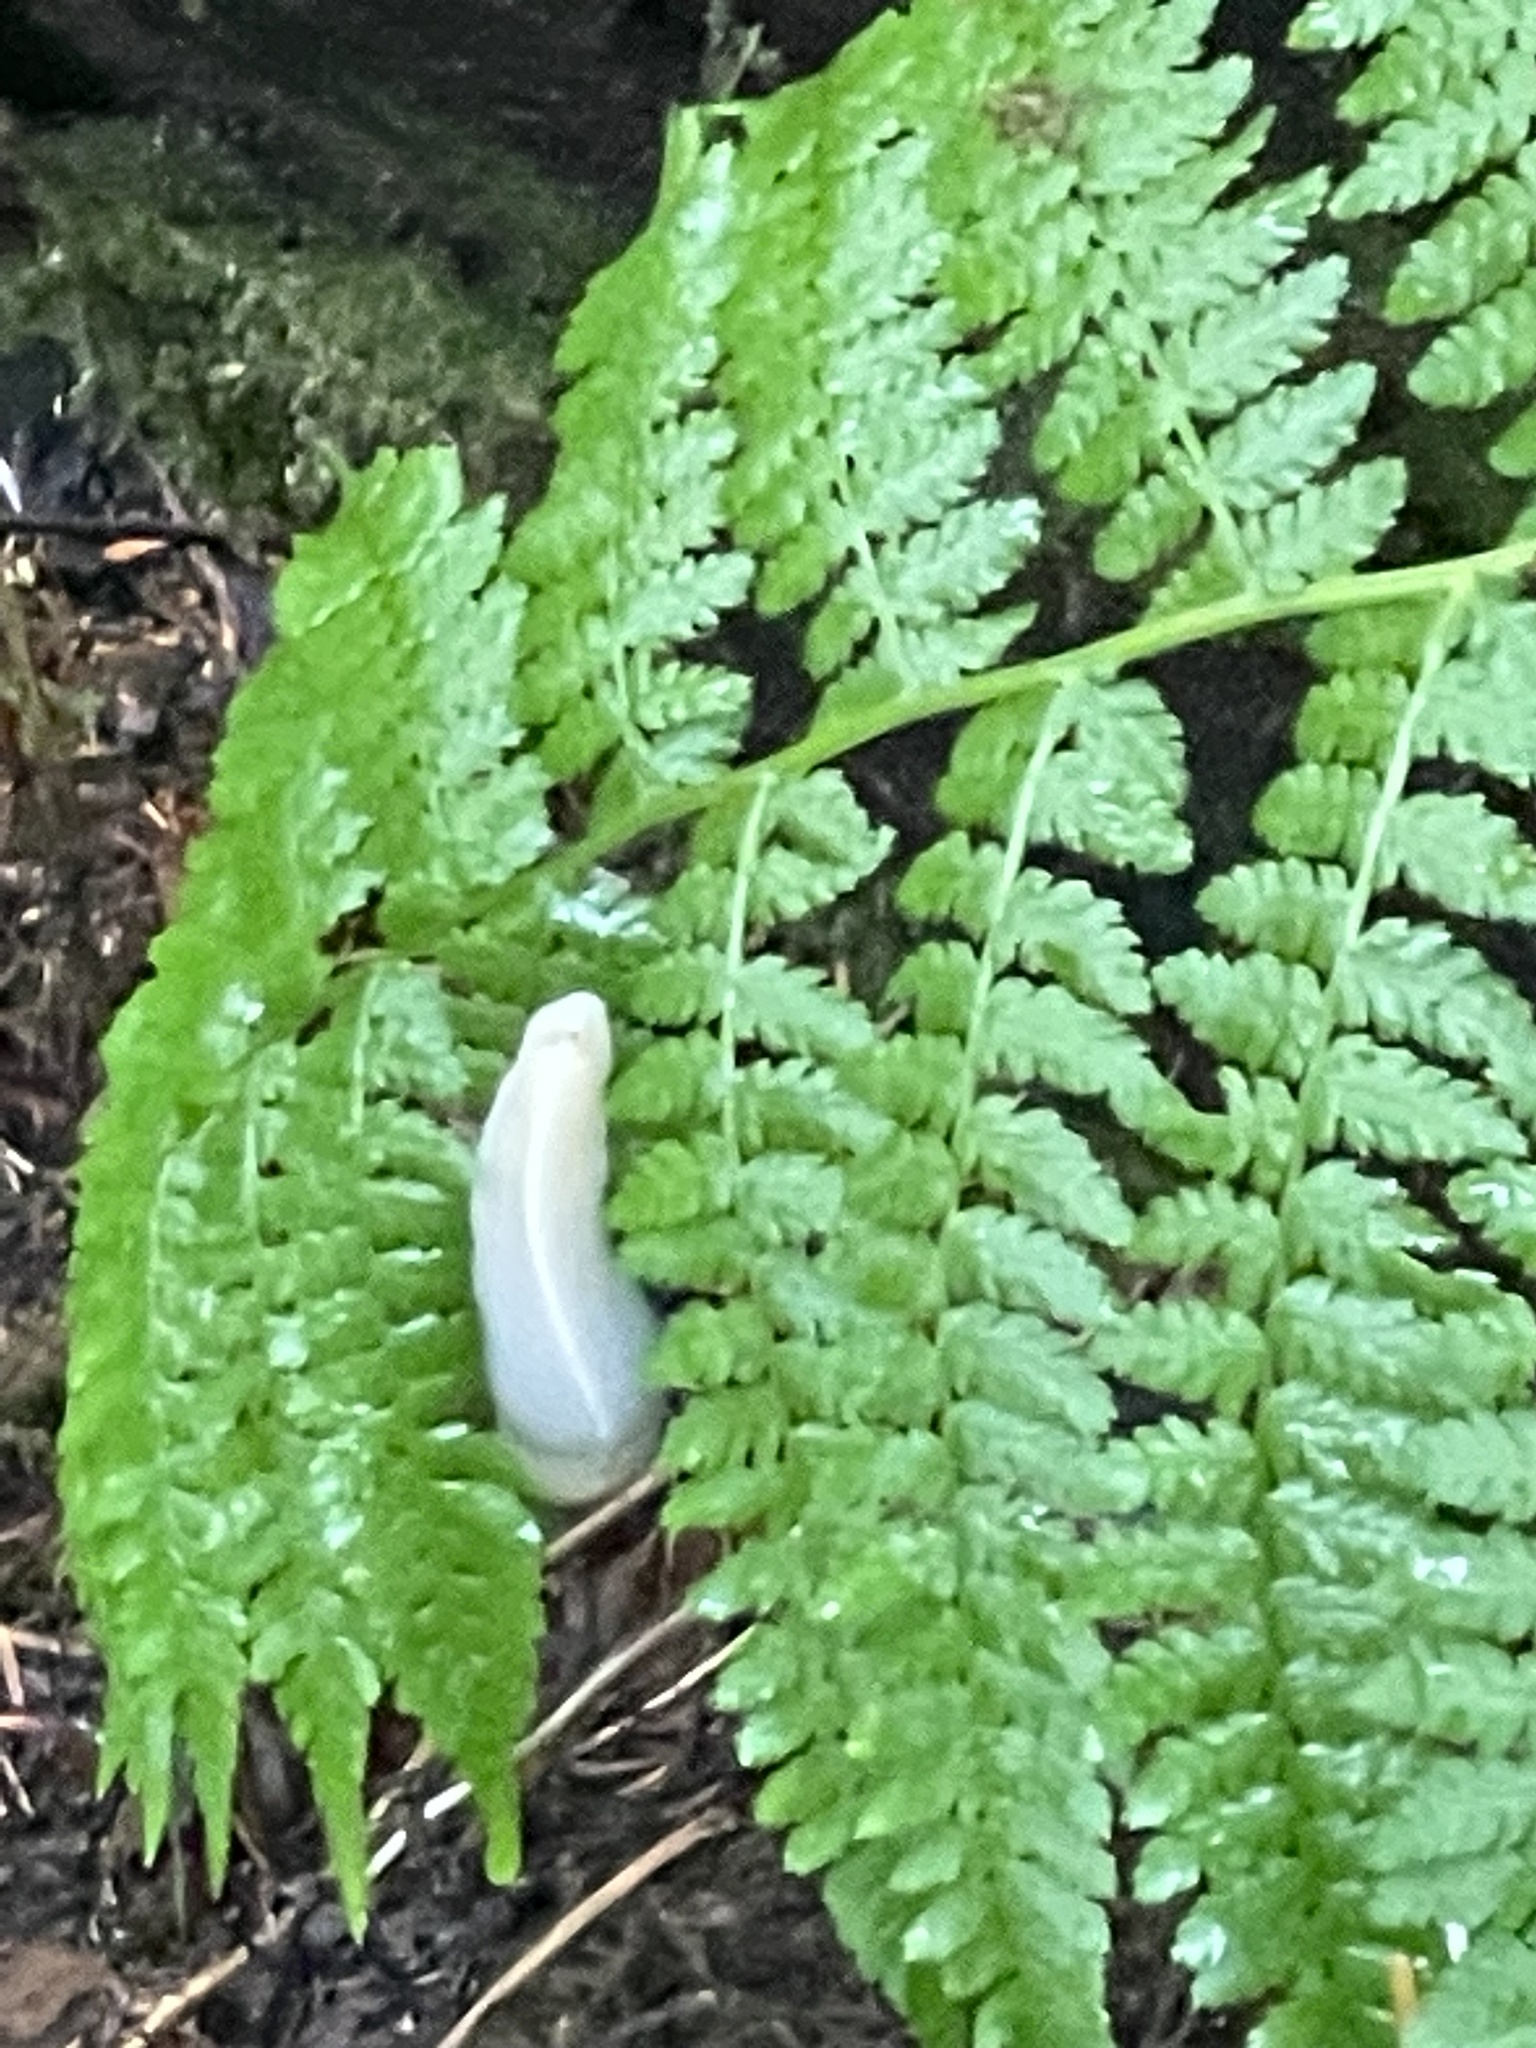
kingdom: Animalia
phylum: Mollusca
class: Gastropoda
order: Stylommatophora
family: Ariolimacidae
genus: Ariolimax
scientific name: Ariolimax columbianus
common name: Pacific banana slug
